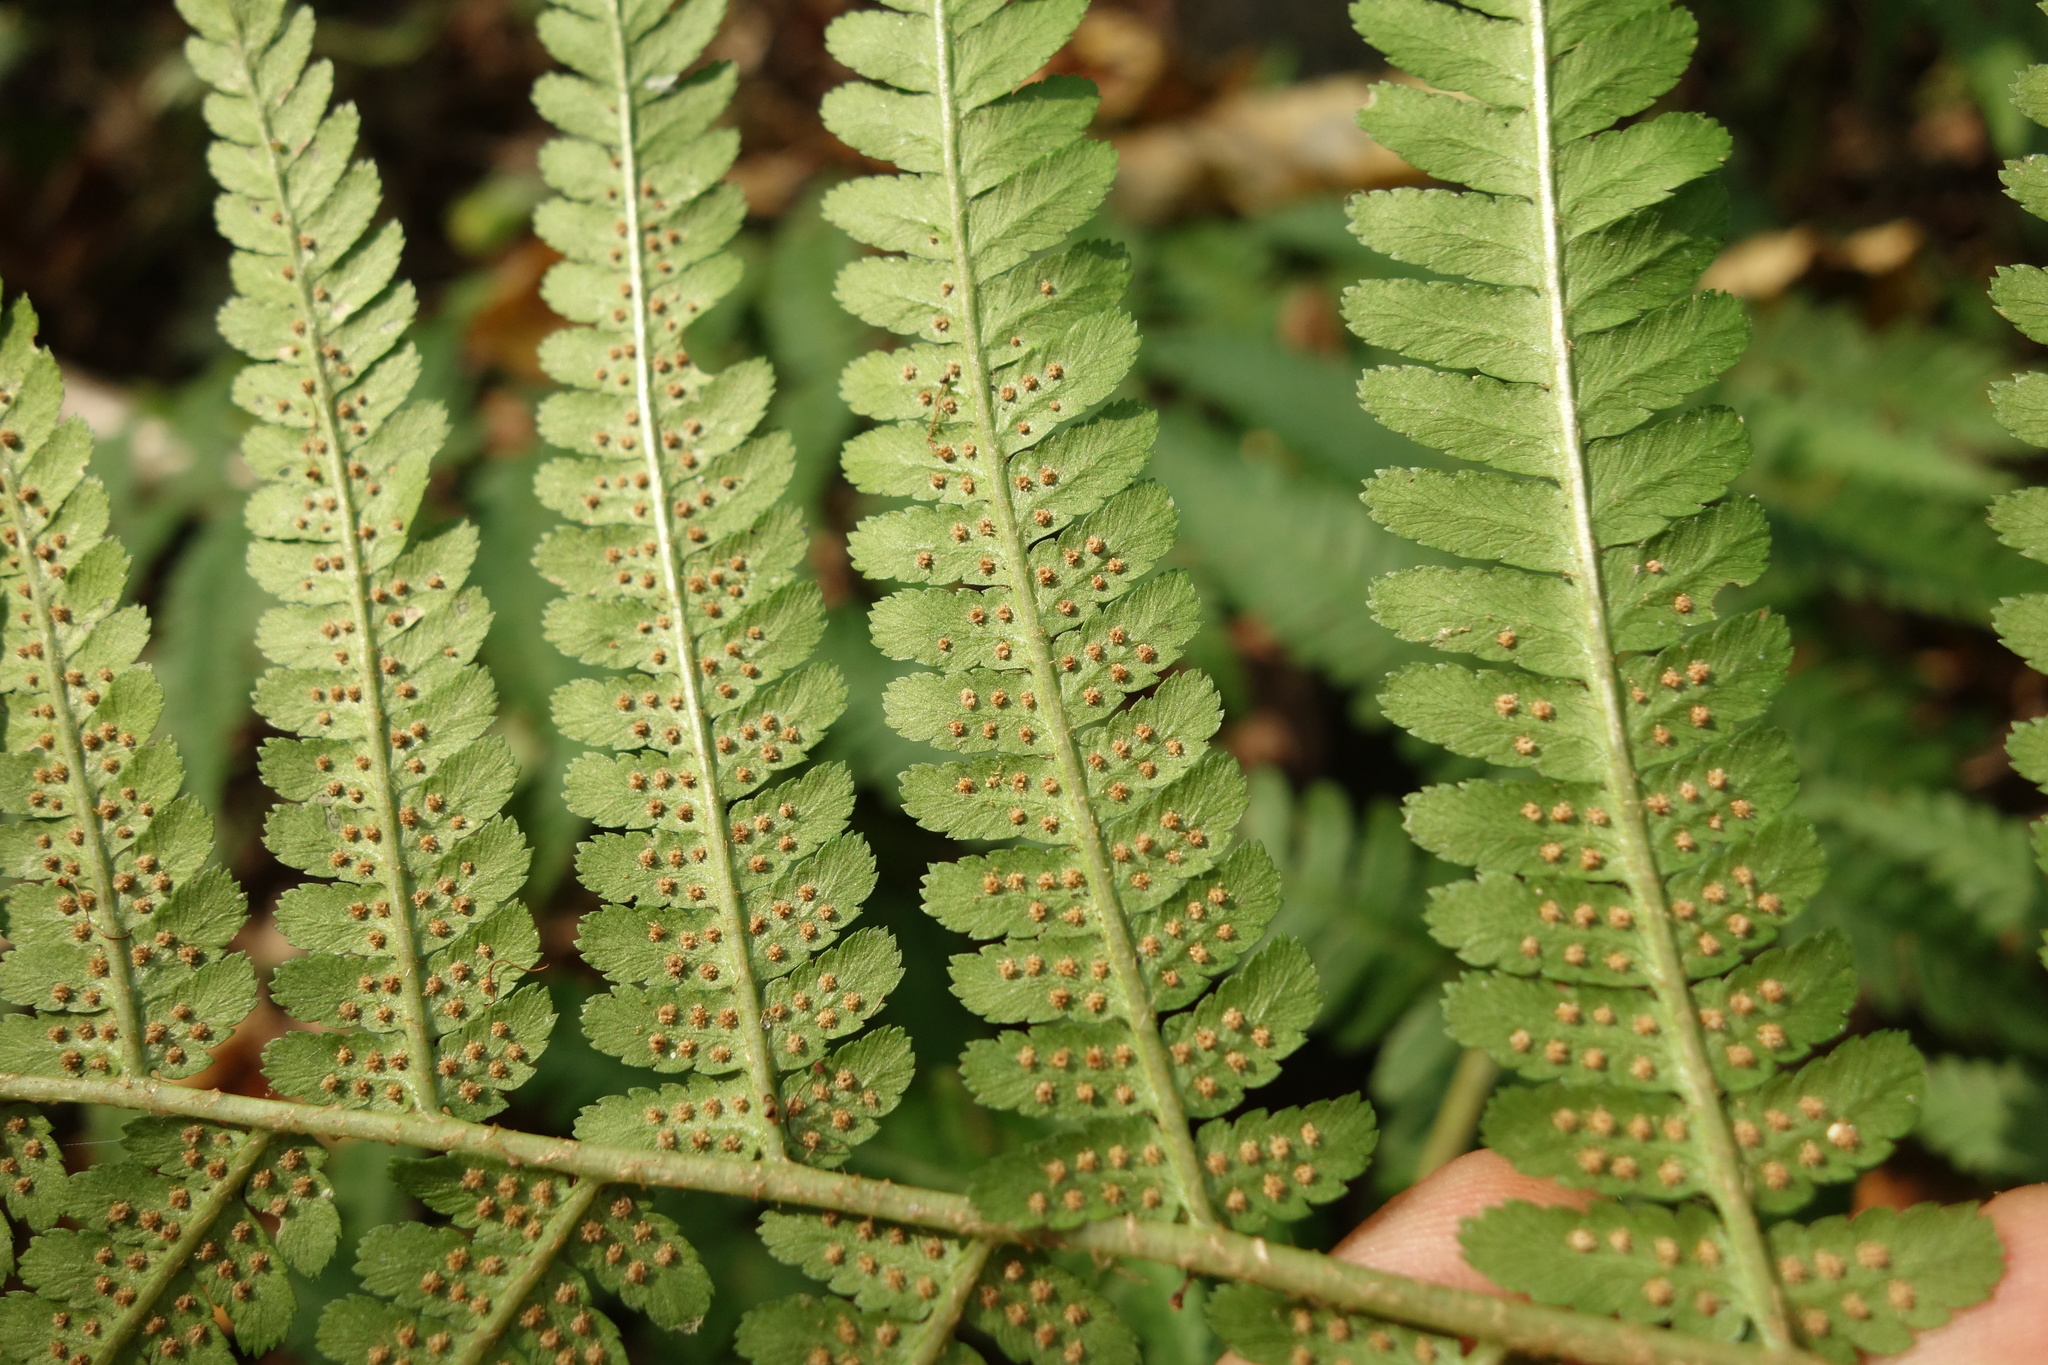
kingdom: Plantae
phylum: Tracheophyta
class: Polypodiopsida
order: Polypodiales
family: Dryopteridaceae
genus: Dryopteris
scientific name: Dryopteris filix-mas
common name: Male fern
